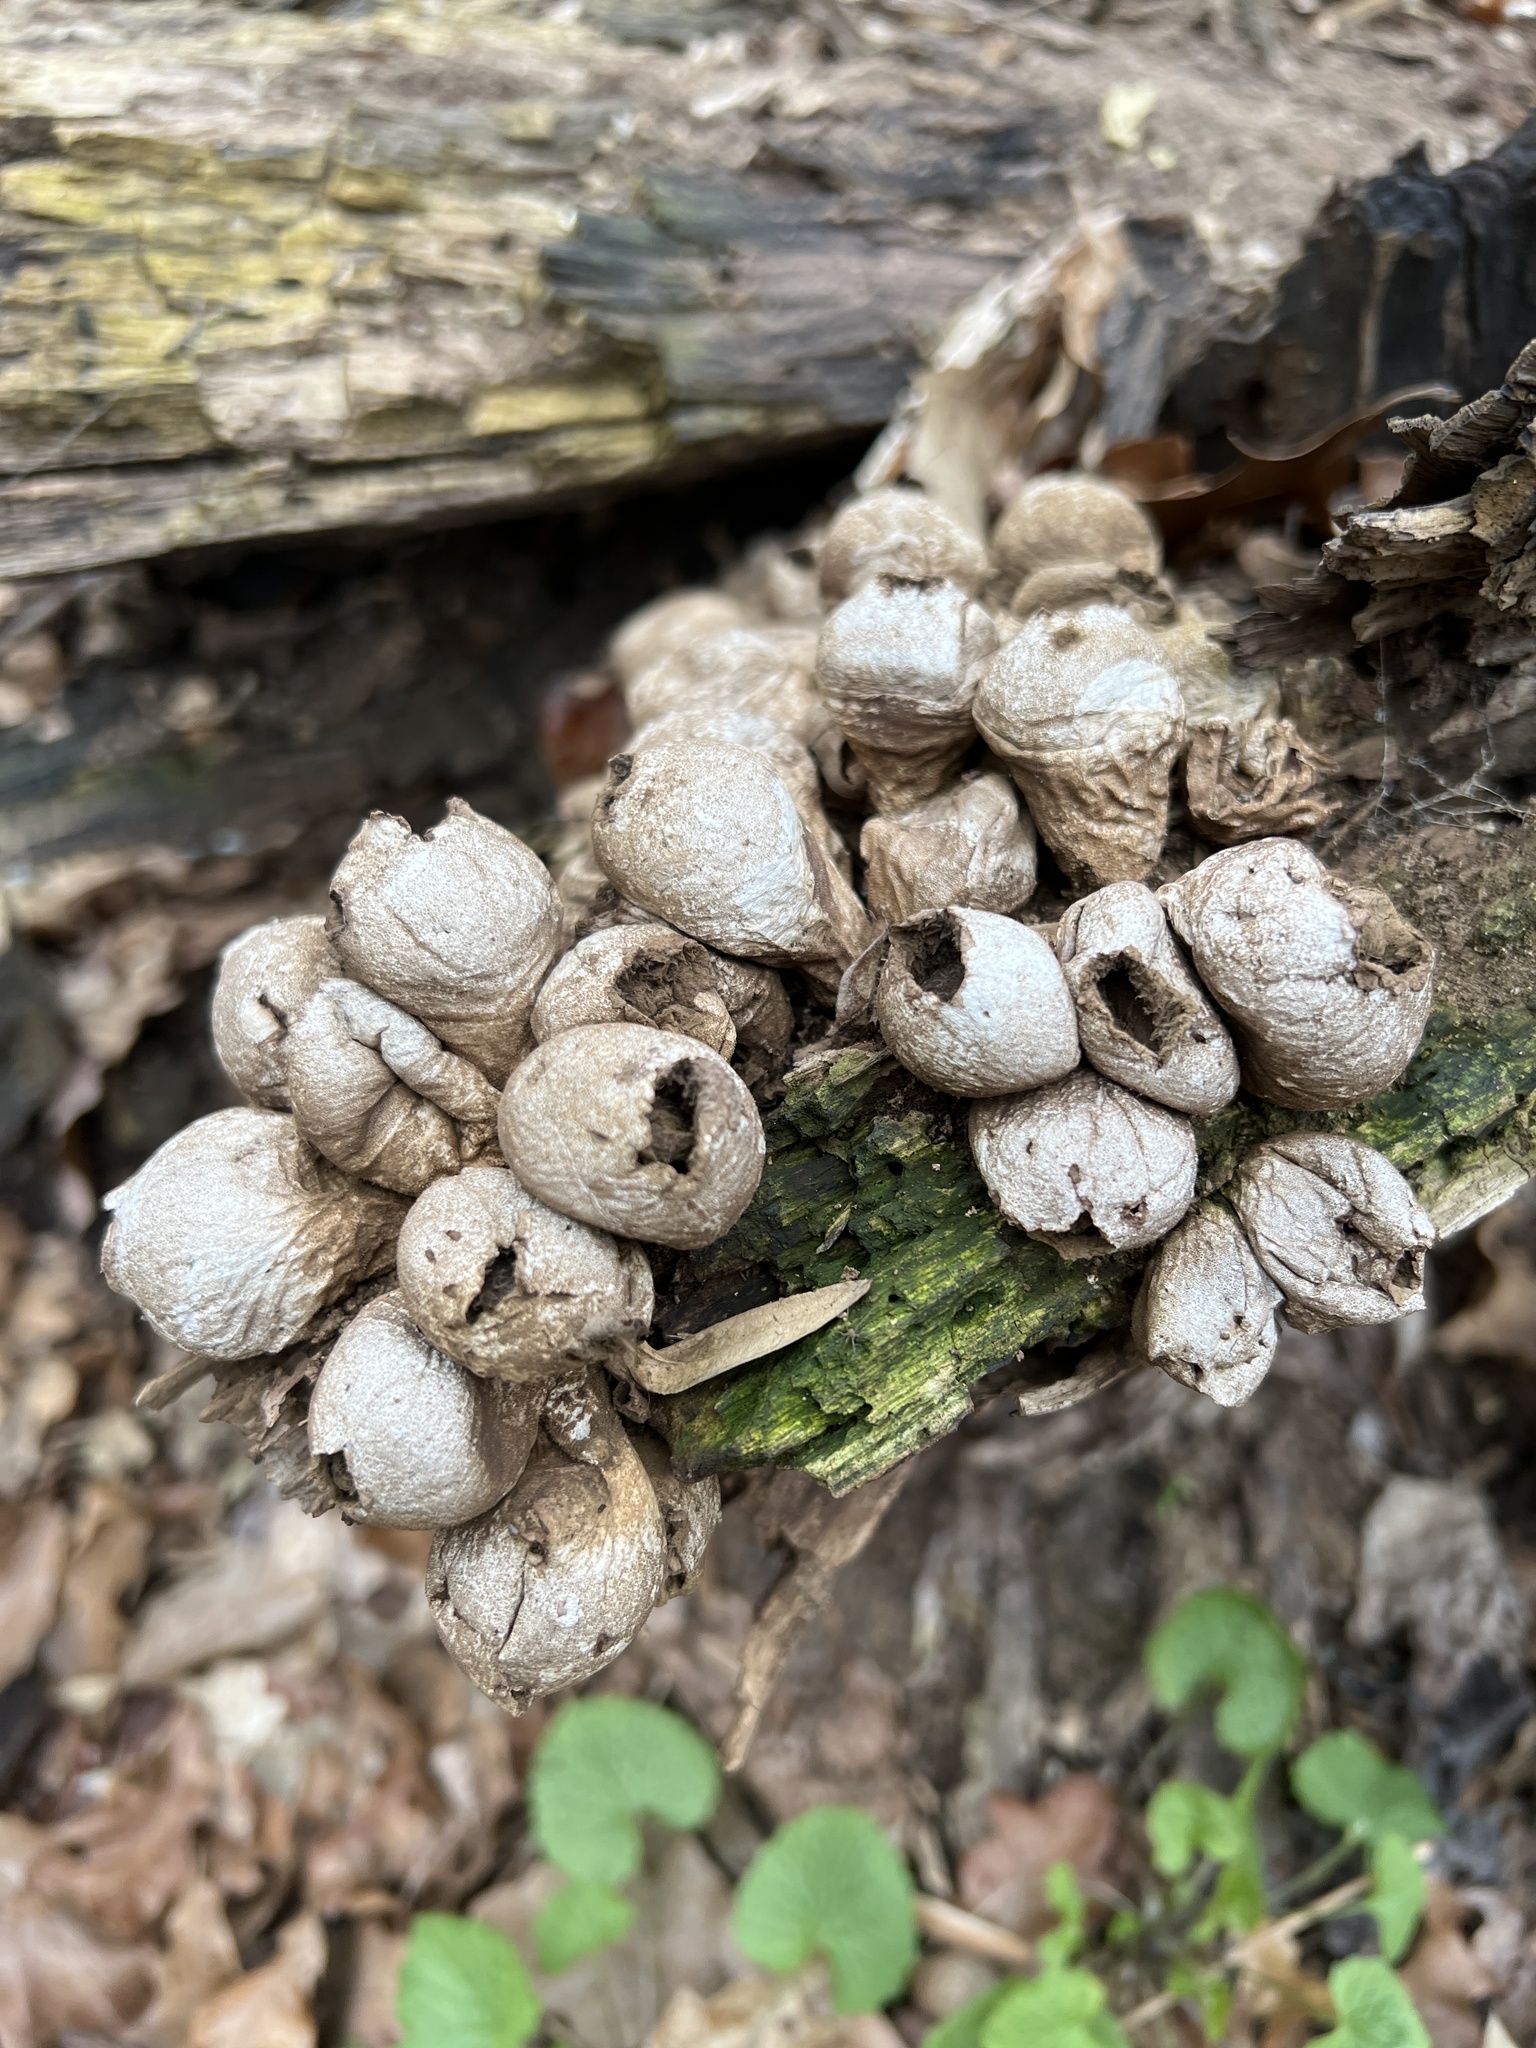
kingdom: Fungi
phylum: Basidiomycota
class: Agaricomycetes
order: Agaricales
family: Lycoperdaceae
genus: Apioperdon
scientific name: Apioperdon pyriforme
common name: Pear-shaped puffball
